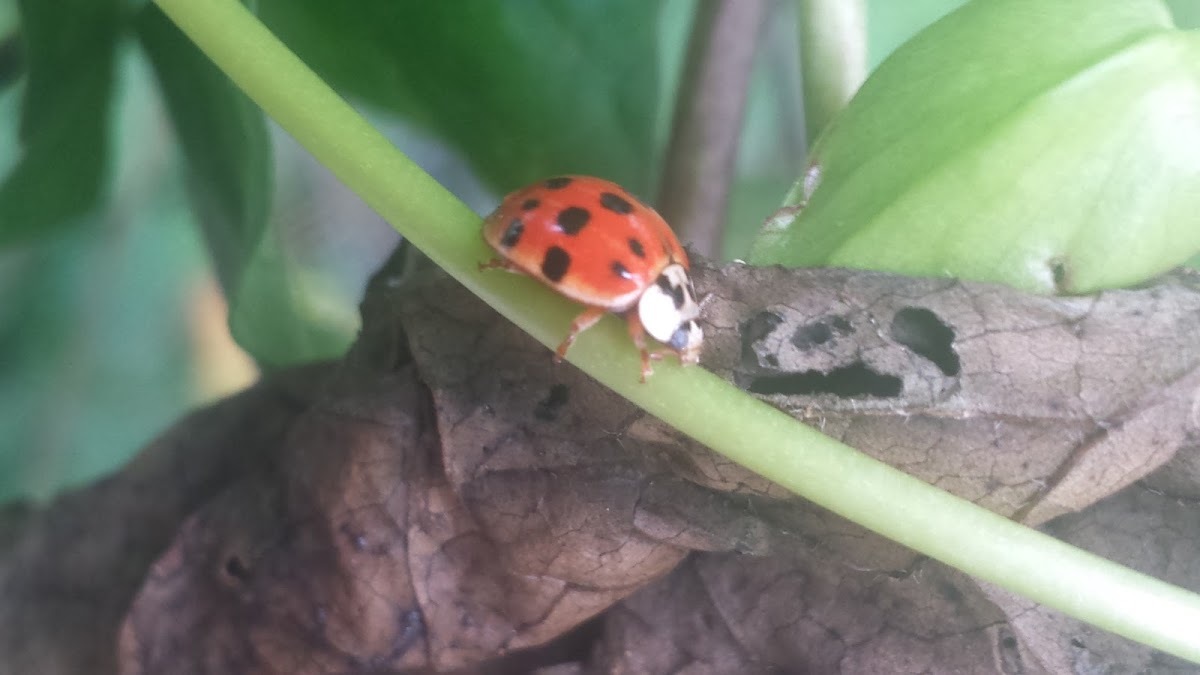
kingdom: Animalia
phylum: Arthropoda
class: Insecta
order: Coleoptera
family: Coccinellidae
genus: Harmonia
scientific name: Harmonia axyridis
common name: Harlequin ladybird
